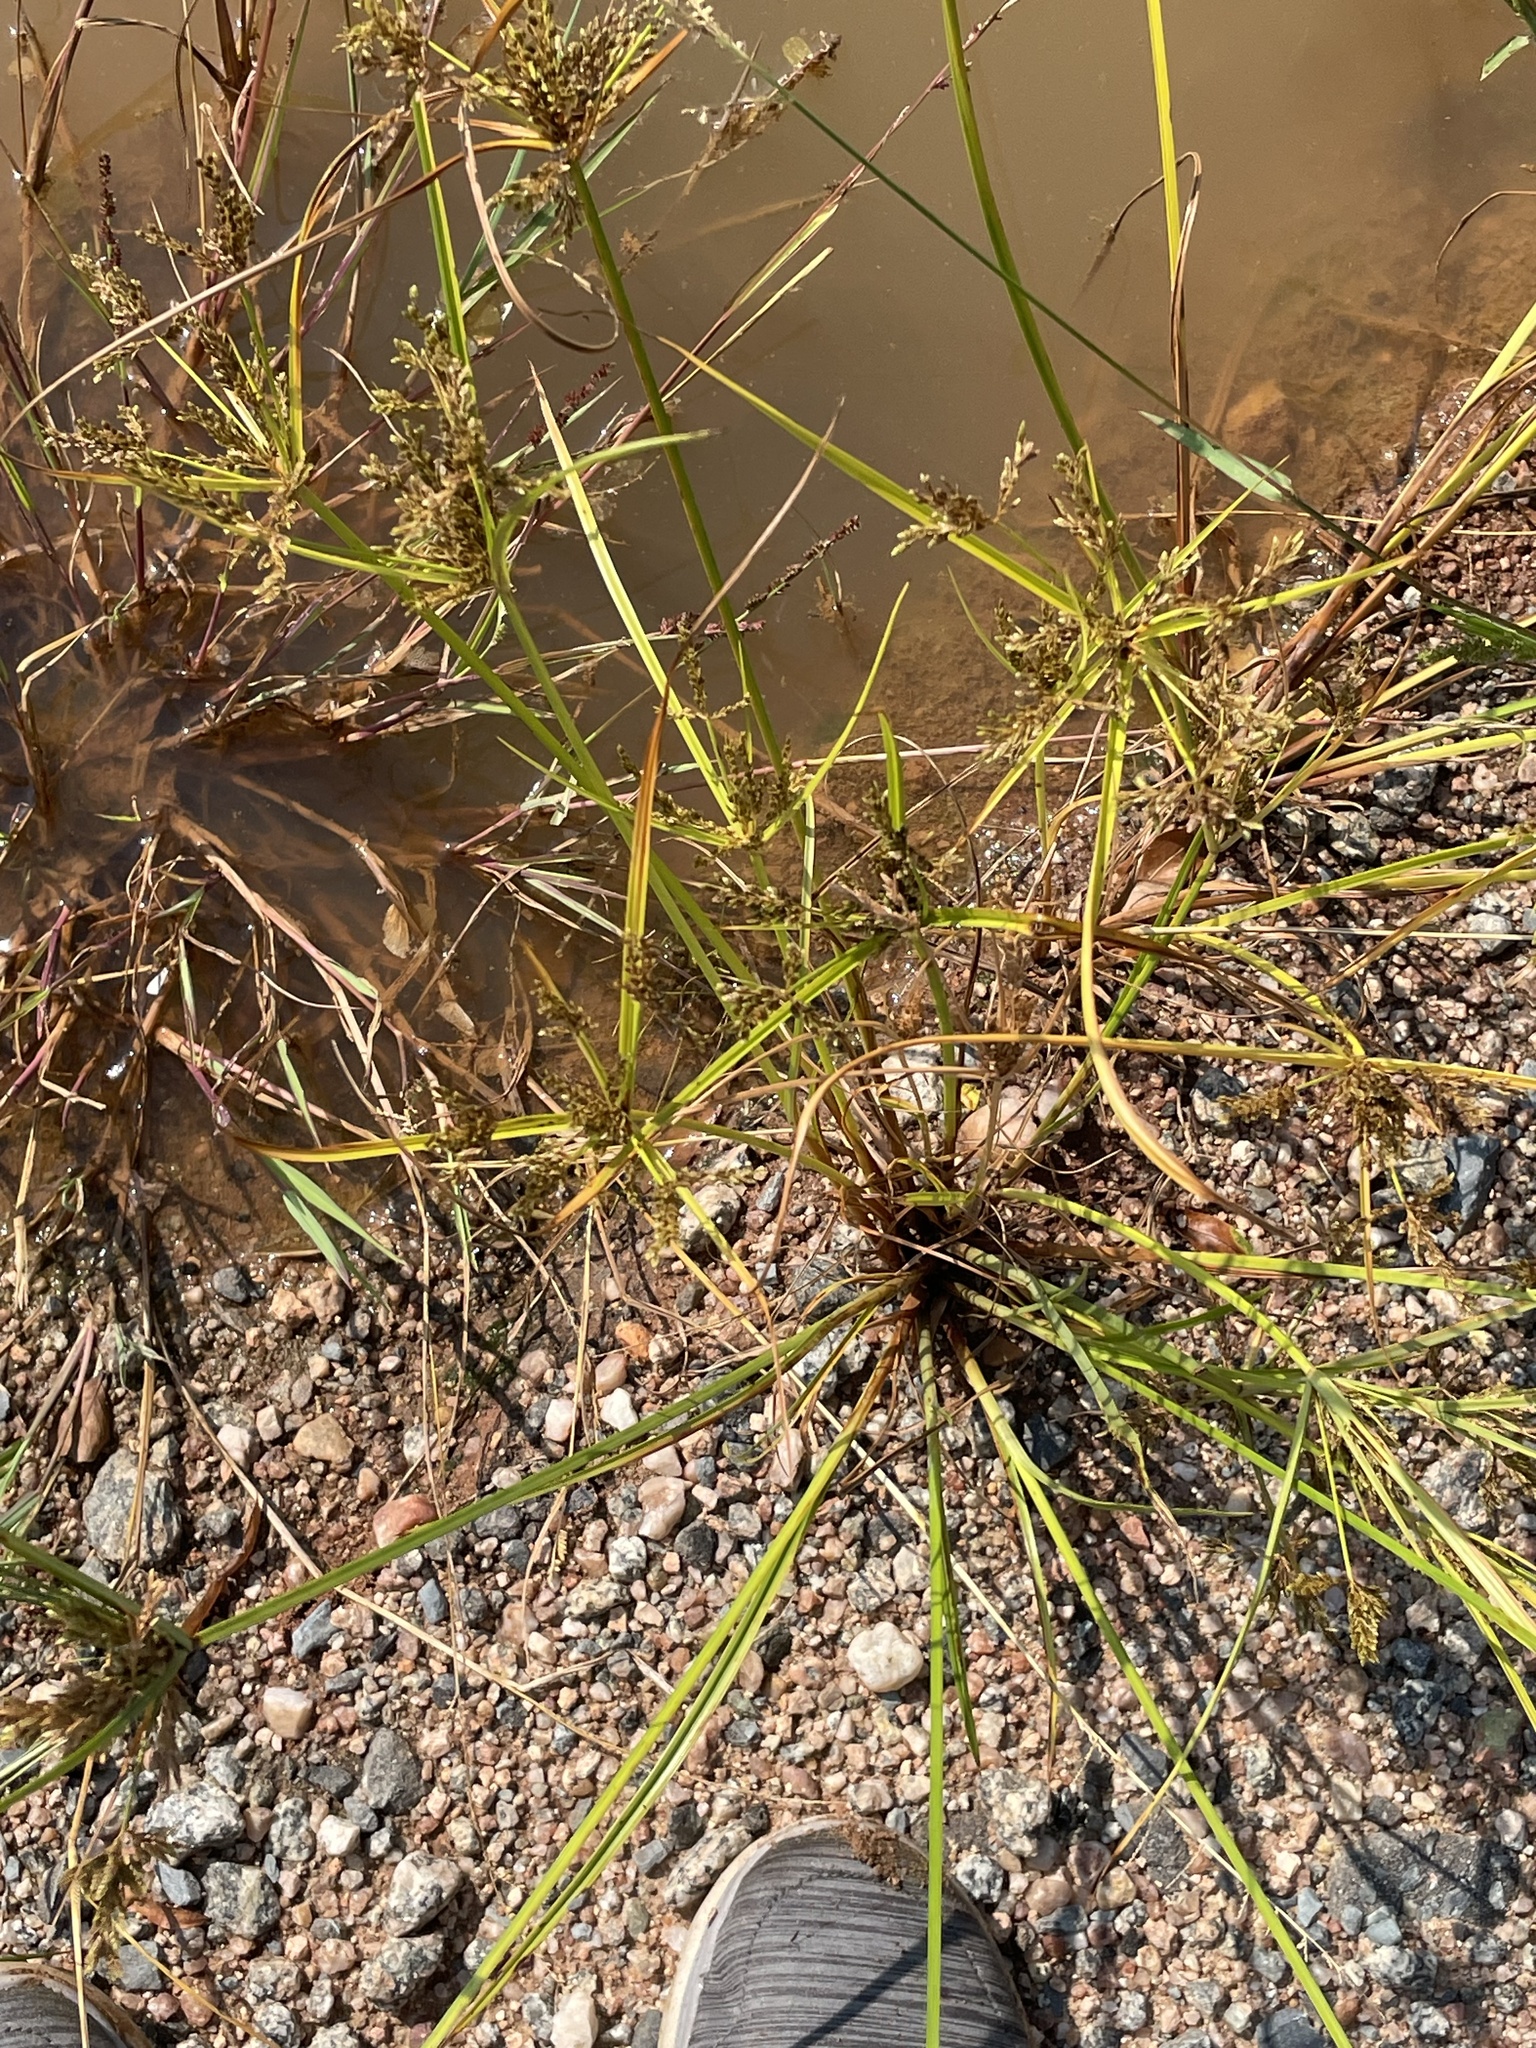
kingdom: Plantae
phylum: Tracheophyta
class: Liliopsida
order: Poales
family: Cyperaceae
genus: Cyperus
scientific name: Cyperus iria
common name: Ricefield flatsedge
